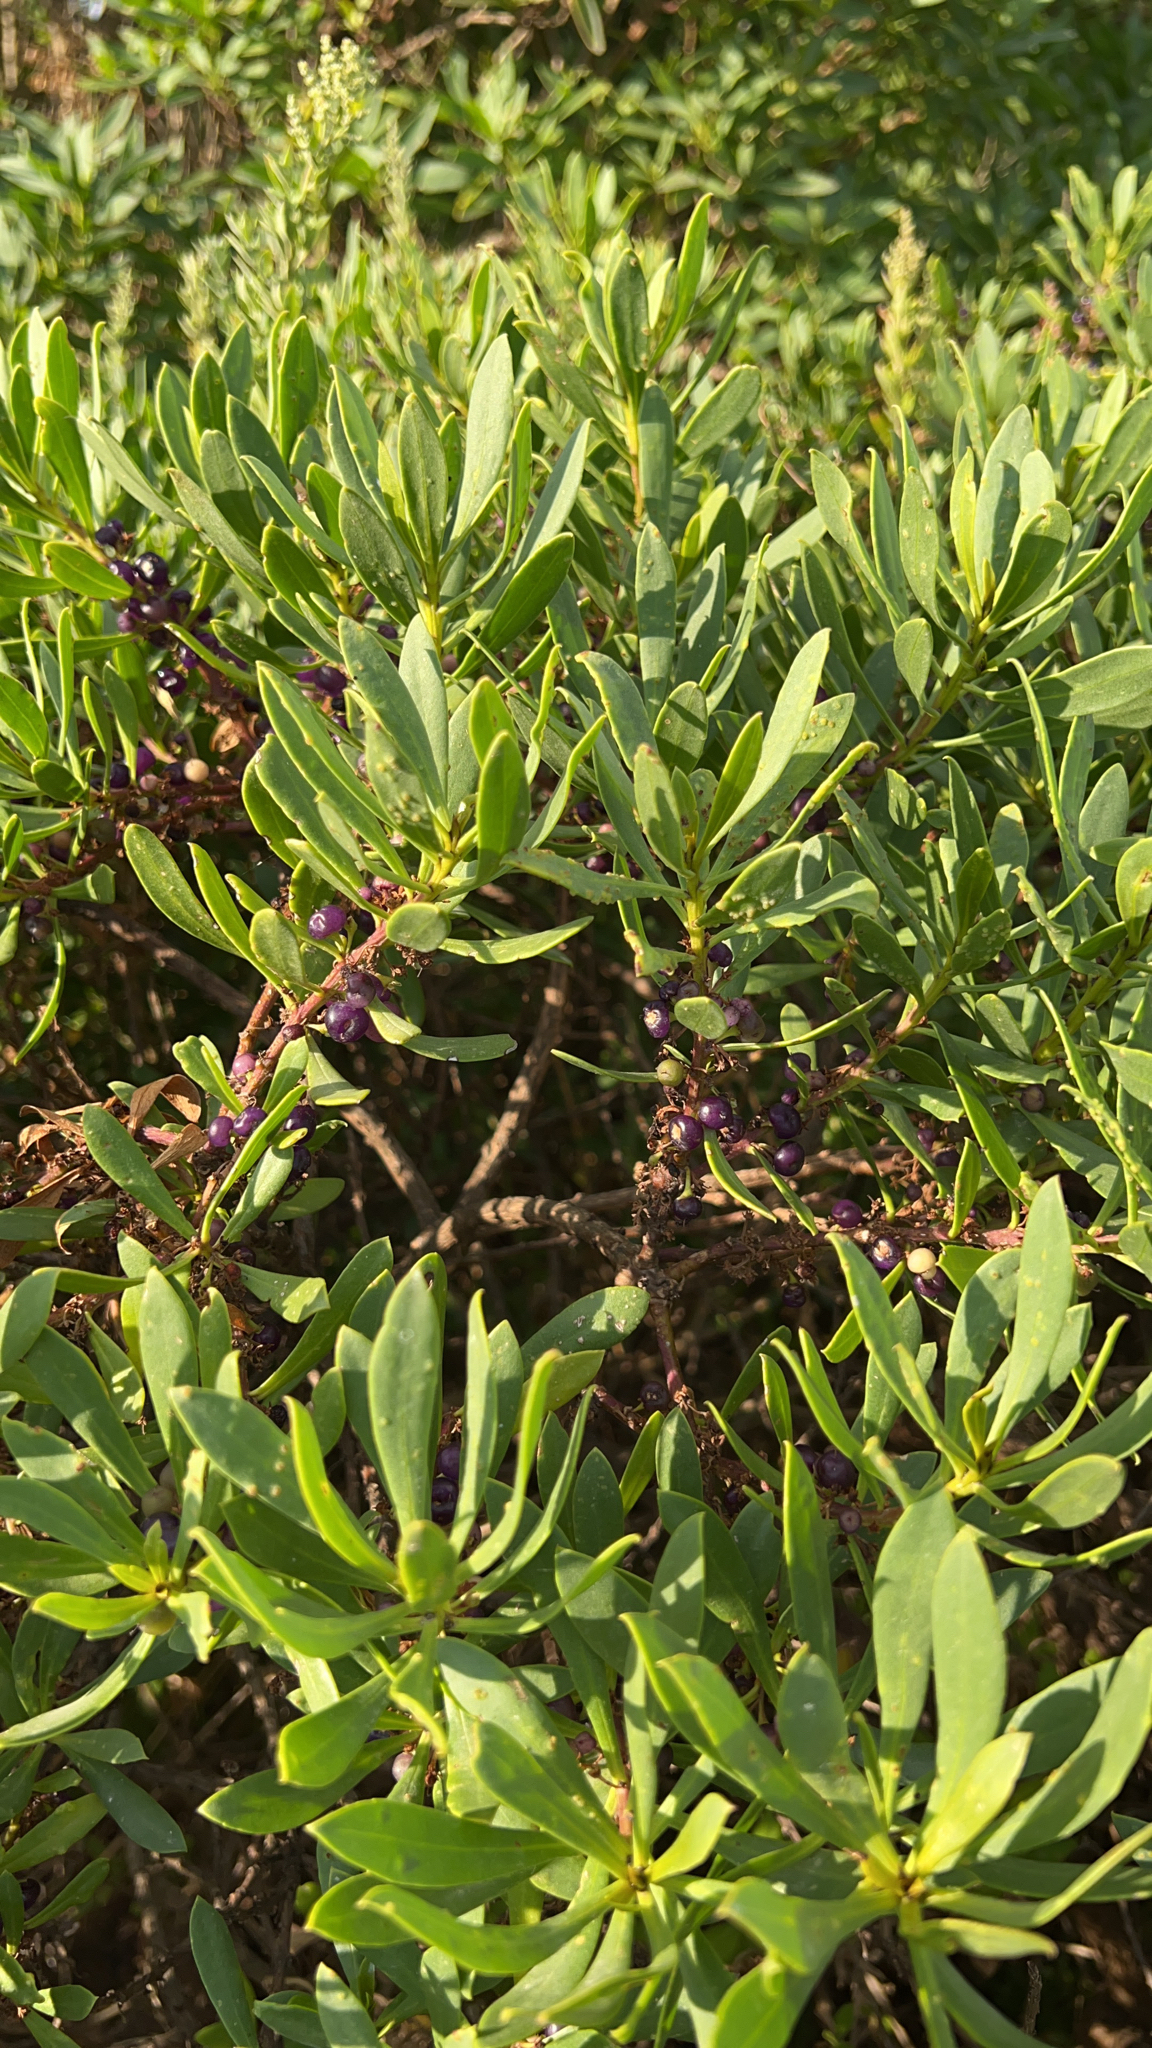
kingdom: Plantae
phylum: Tracheophyta
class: Magnoliopsida
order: Lamiales
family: Scrophulariaceae
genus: Myoporum
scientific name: Myoporum insulare
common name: Common boobialla
